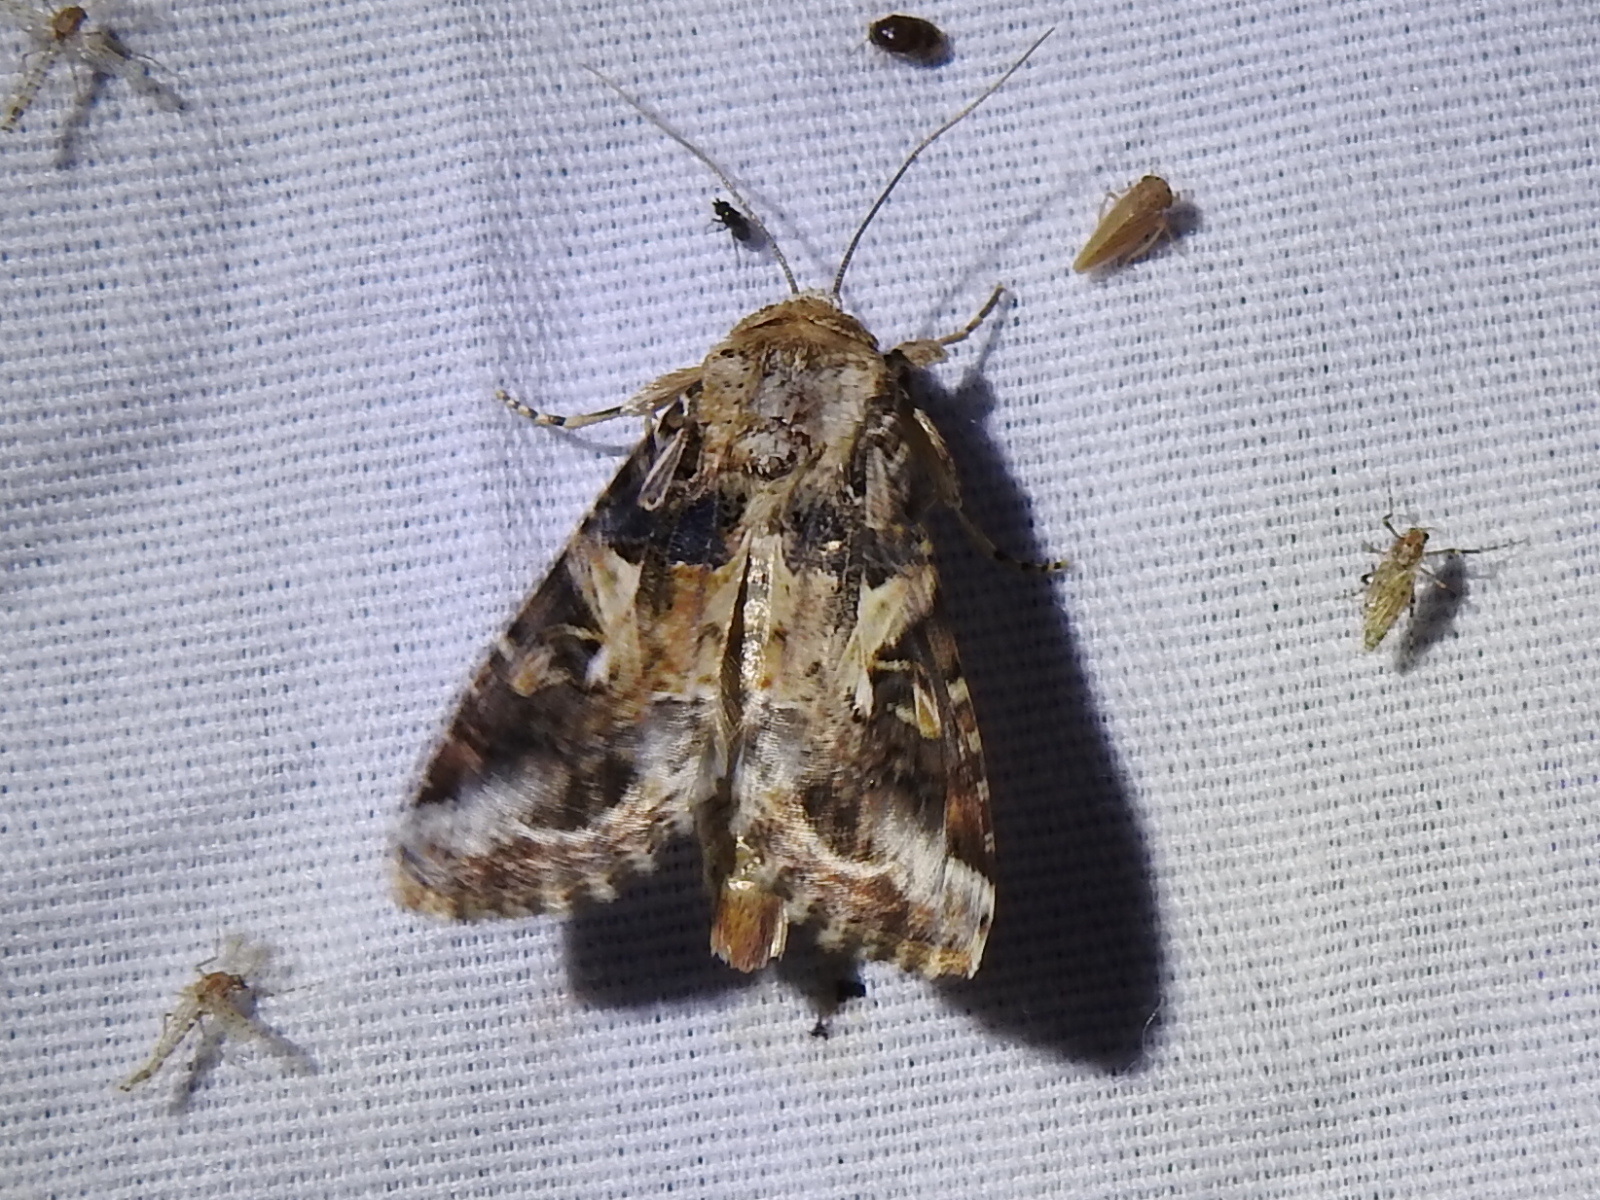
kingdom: Animalia
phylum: Arthropoda
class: Insecta
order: Lepidoptera
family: Noctuidae
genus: Spodoptera
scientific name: Spodoptera ornithogalli
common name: Yellow-striped armyworm
